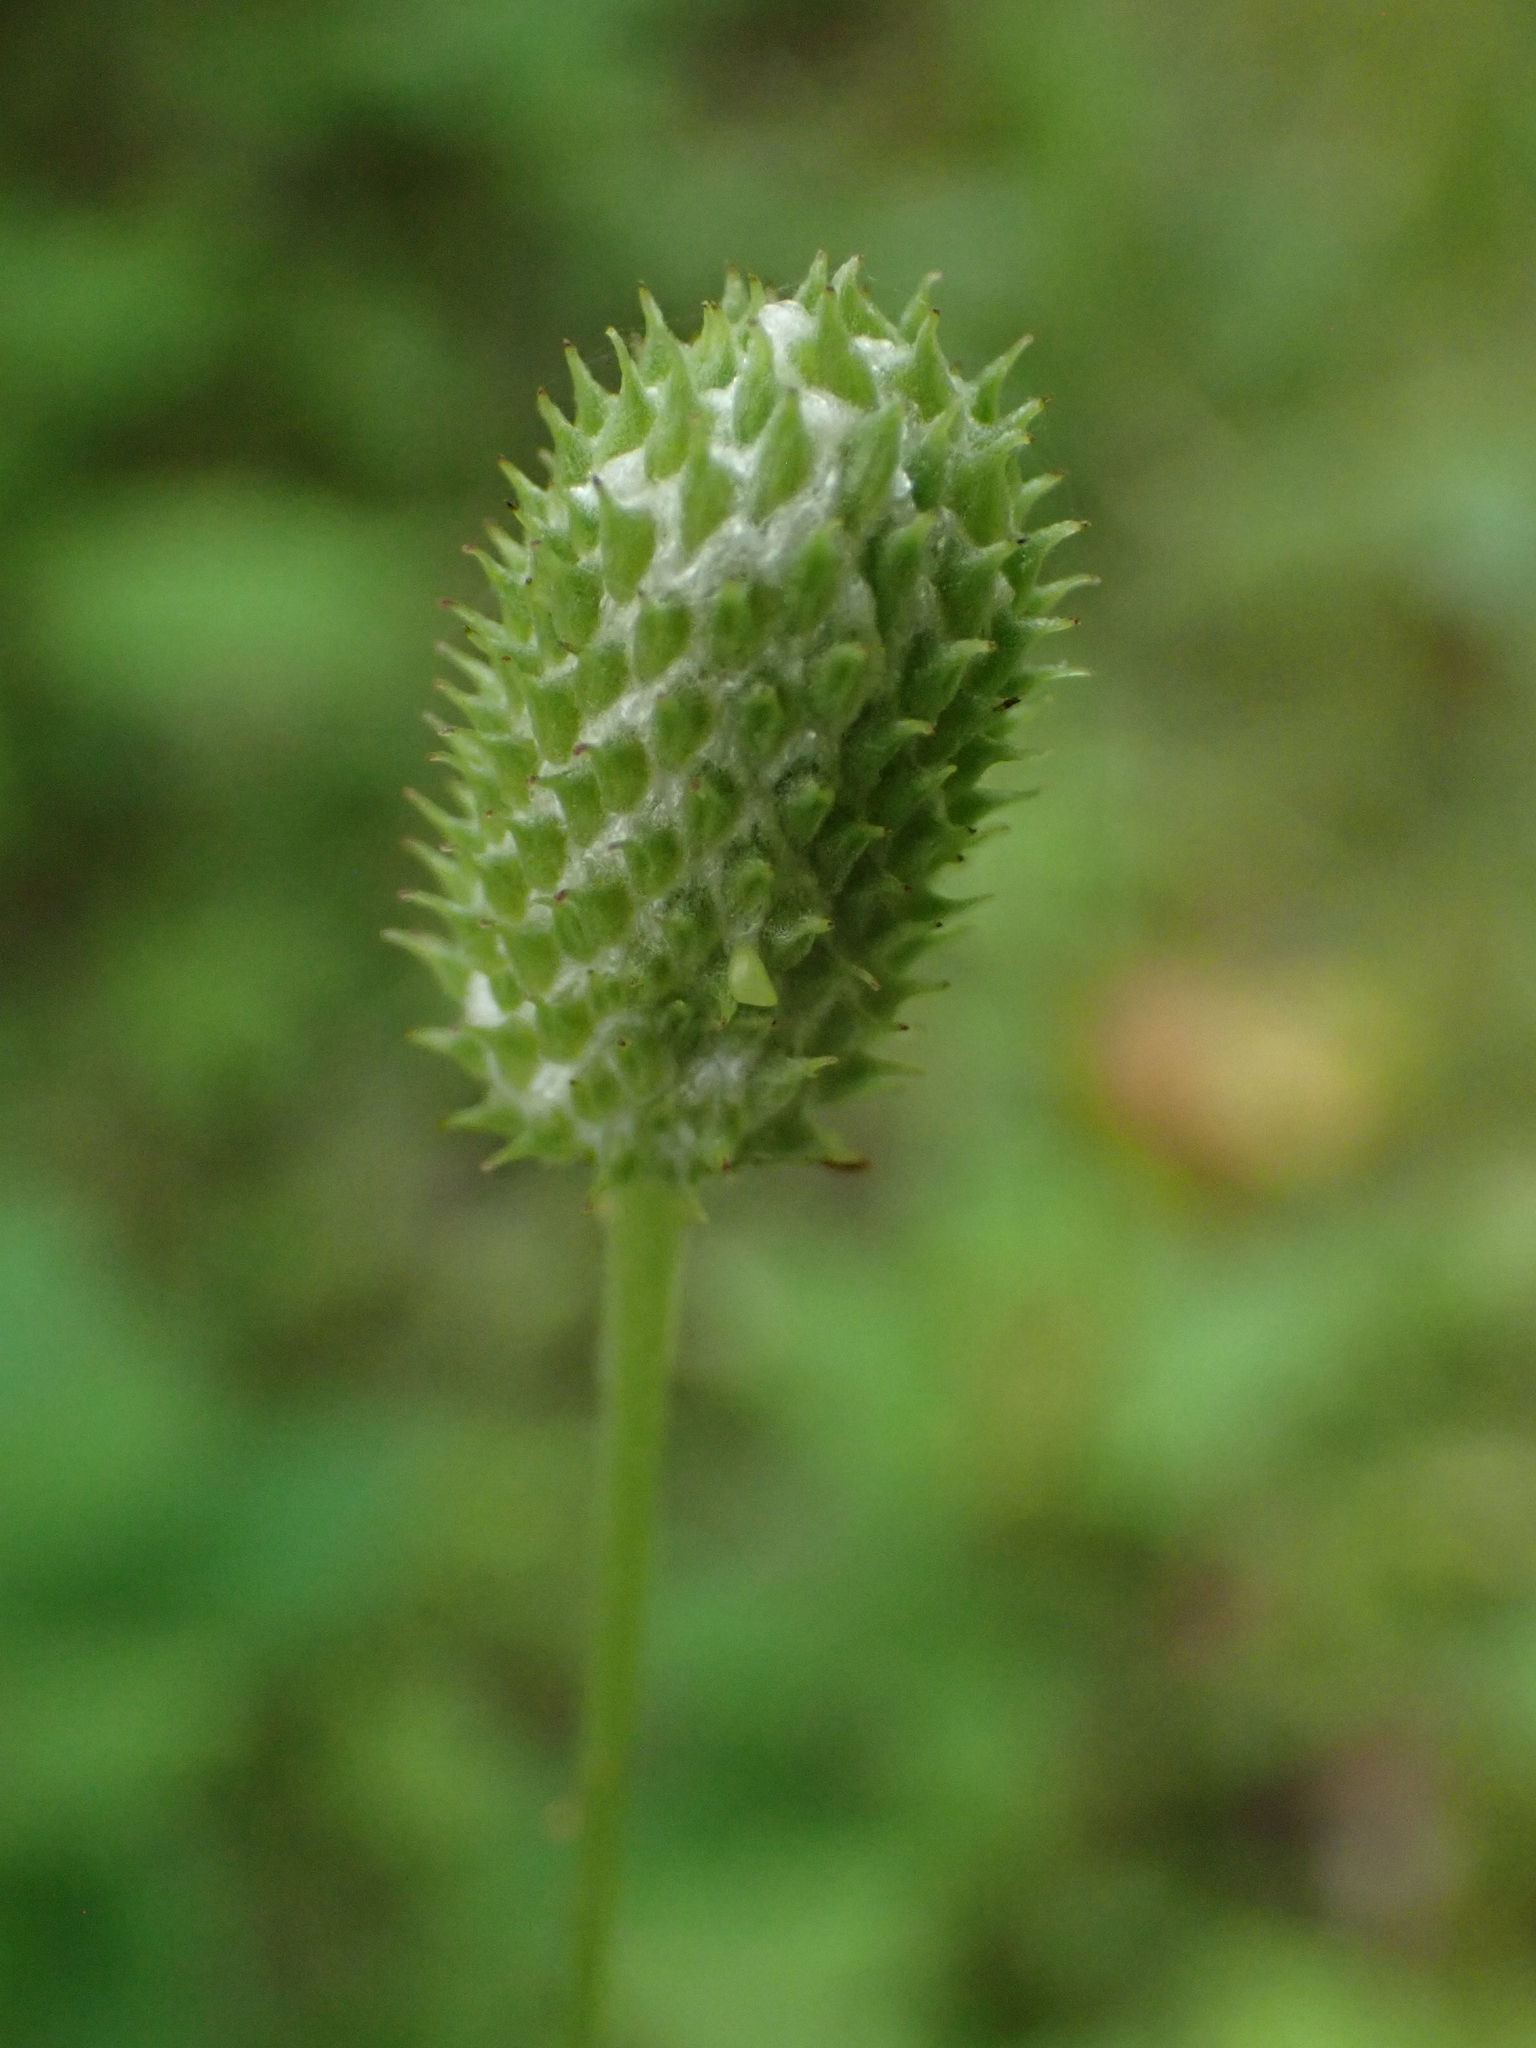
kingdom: Plantae
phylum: Tracheophyta
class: Magnoliopsida
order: Ranunculales
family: Ranunculaceae
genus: Anemone
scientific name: Anemone virginiana
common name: Tall anemone
